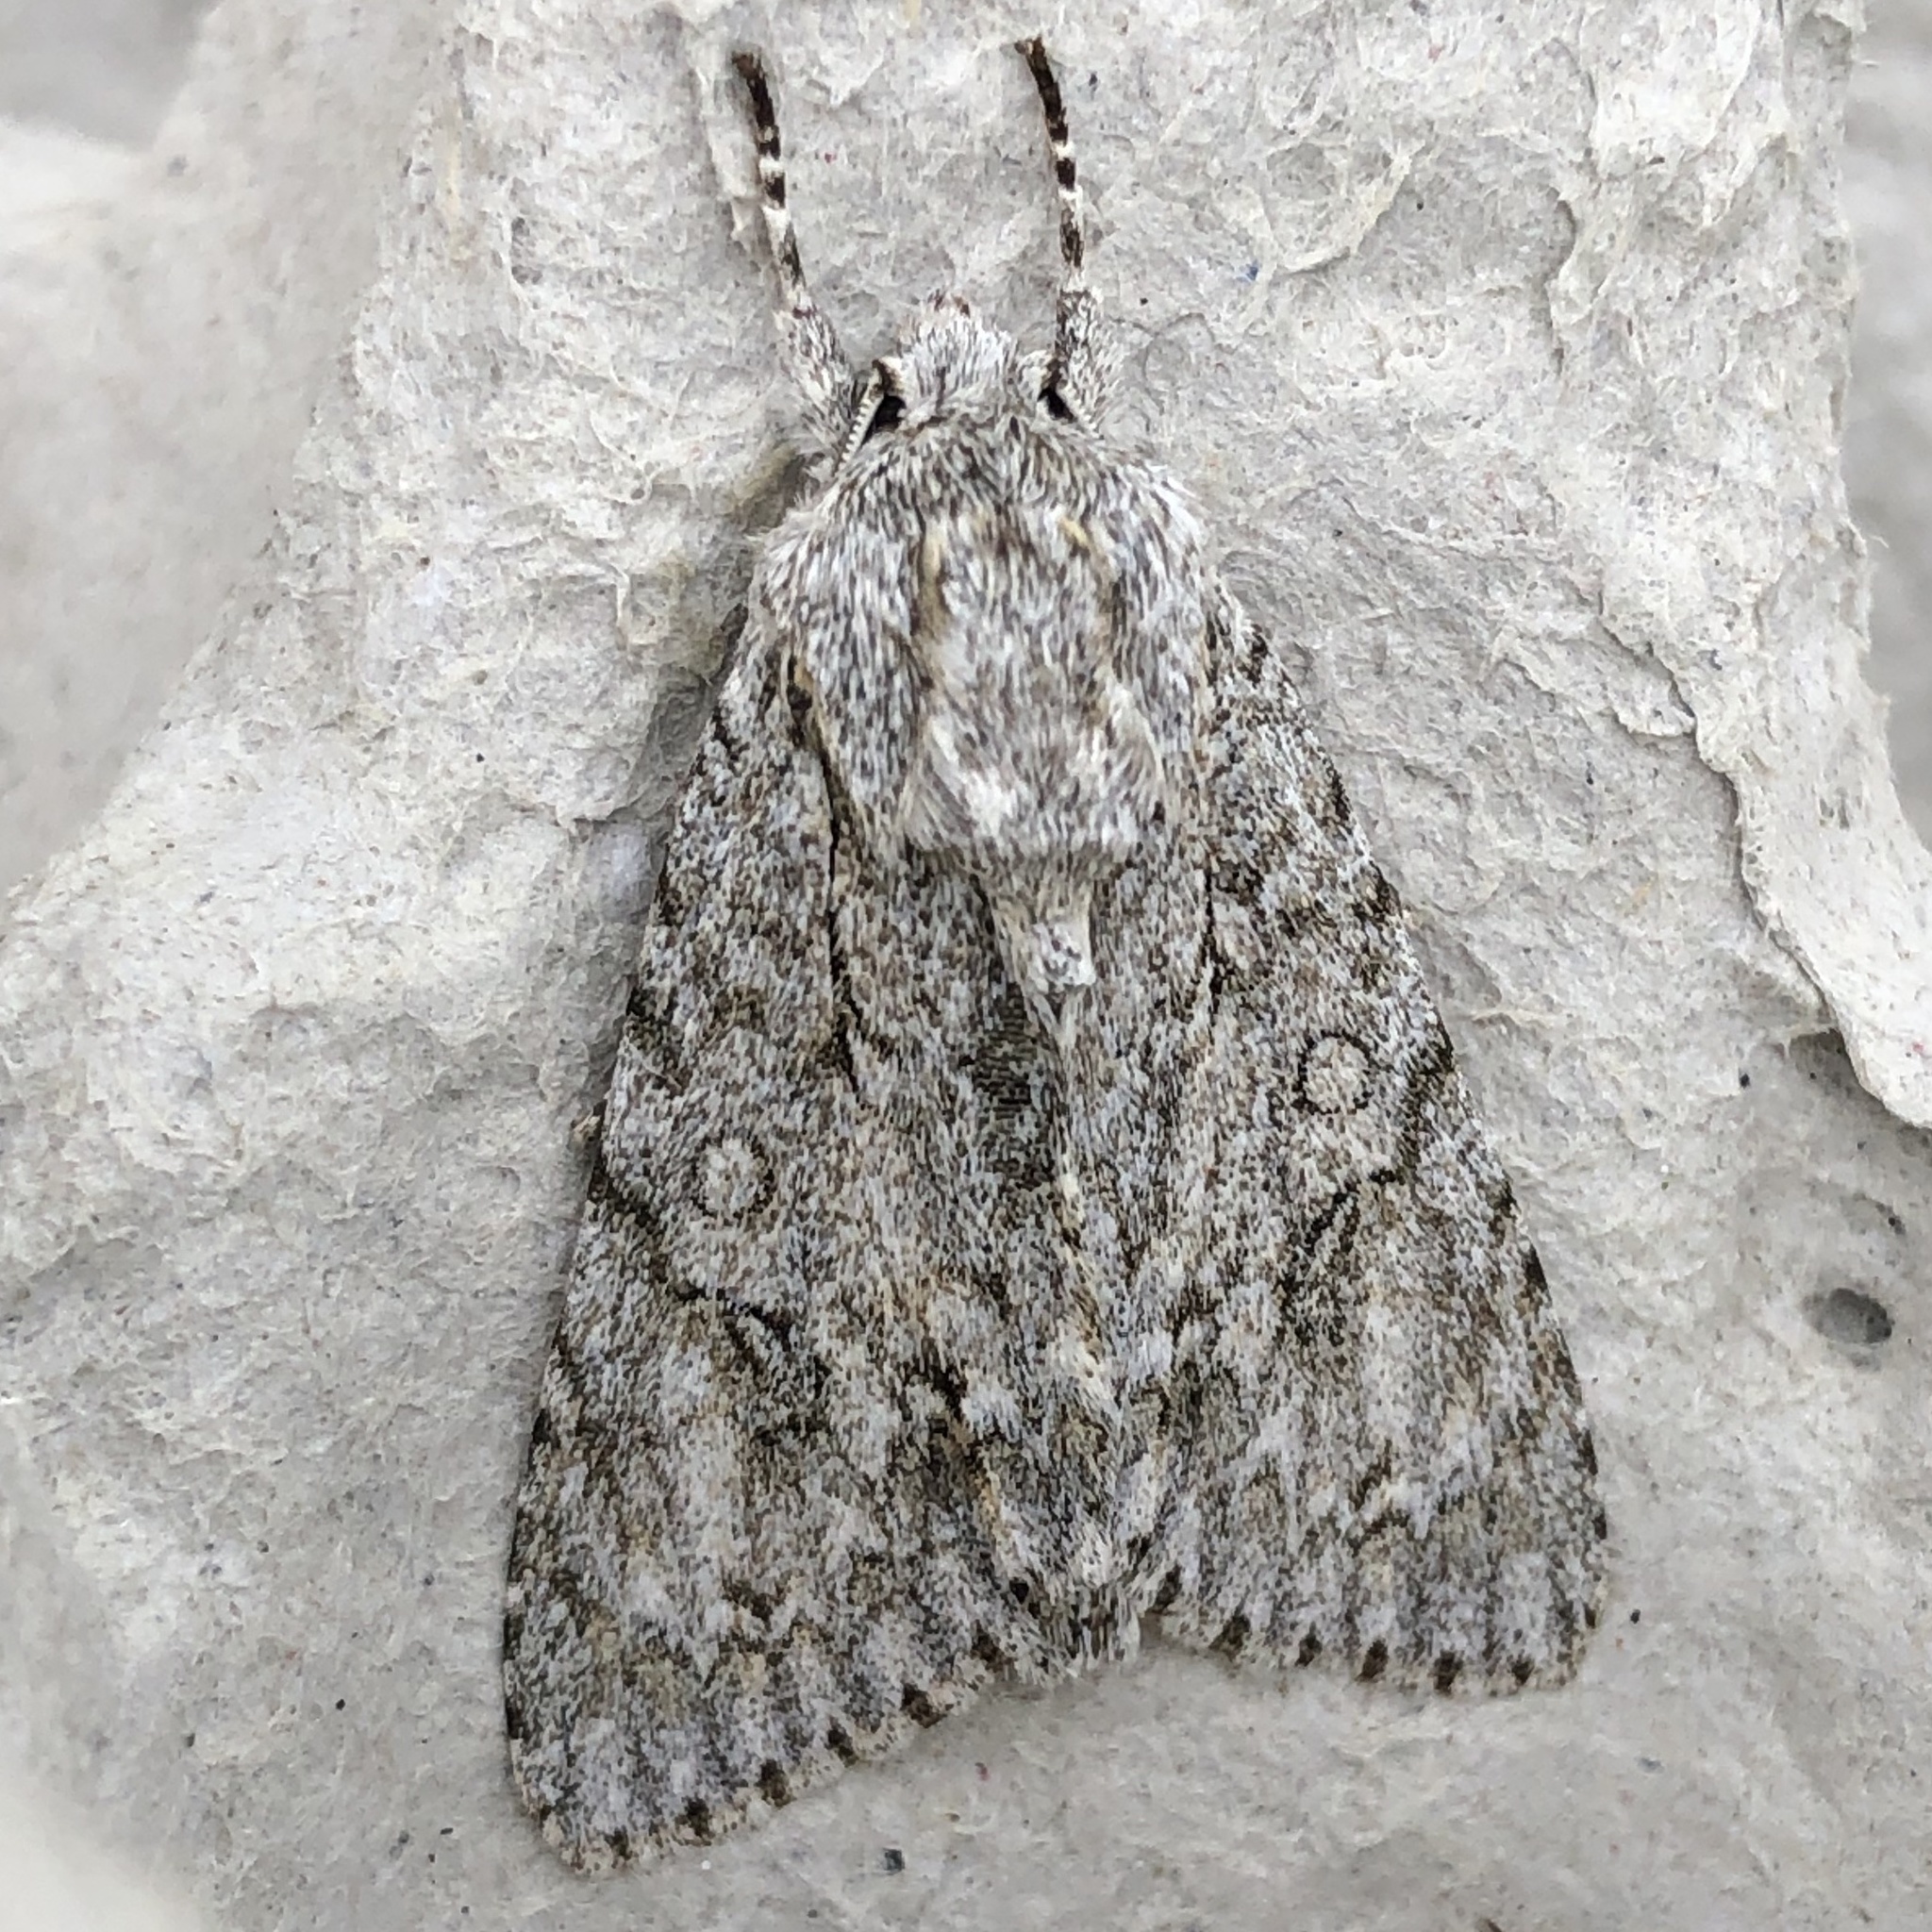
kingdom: Animalia
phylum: Arthropoda
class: Insecta
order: Lepidoptera
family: Noctuidae
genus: Acronicta
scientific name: Acronicta aceris
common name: Sycamore
